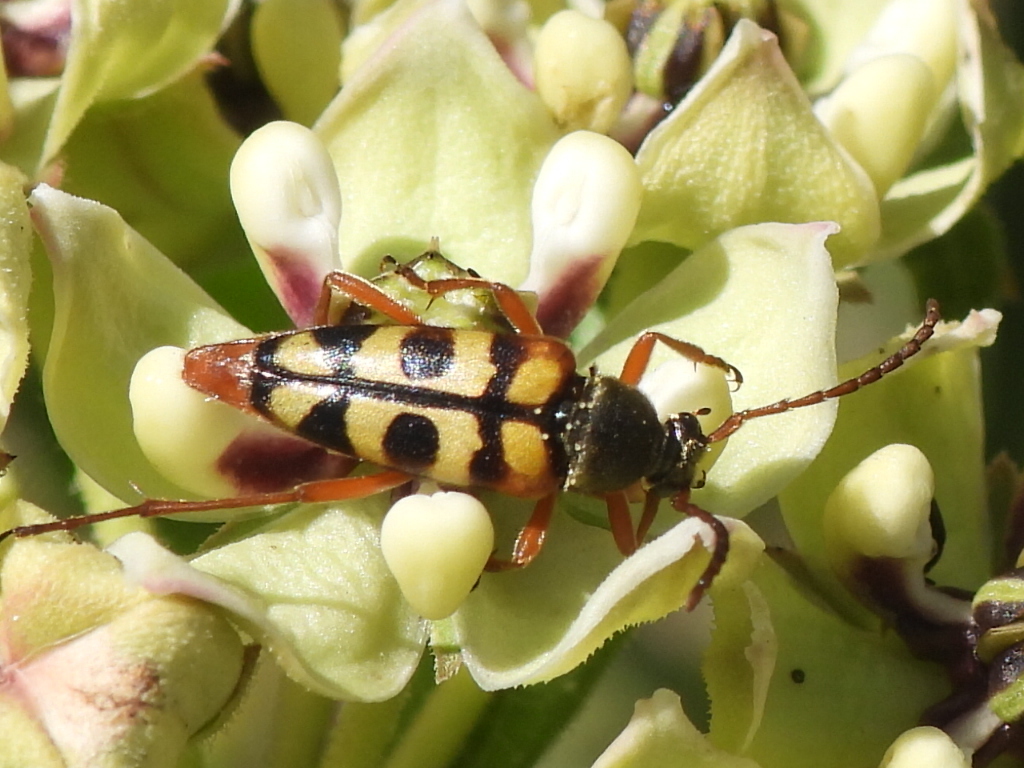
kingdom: Animalia
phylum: Arthropoda
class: Insecta
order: Coleoptera
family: Cerambycidae
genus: Typocerus
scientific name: Typocerus sinuatus
